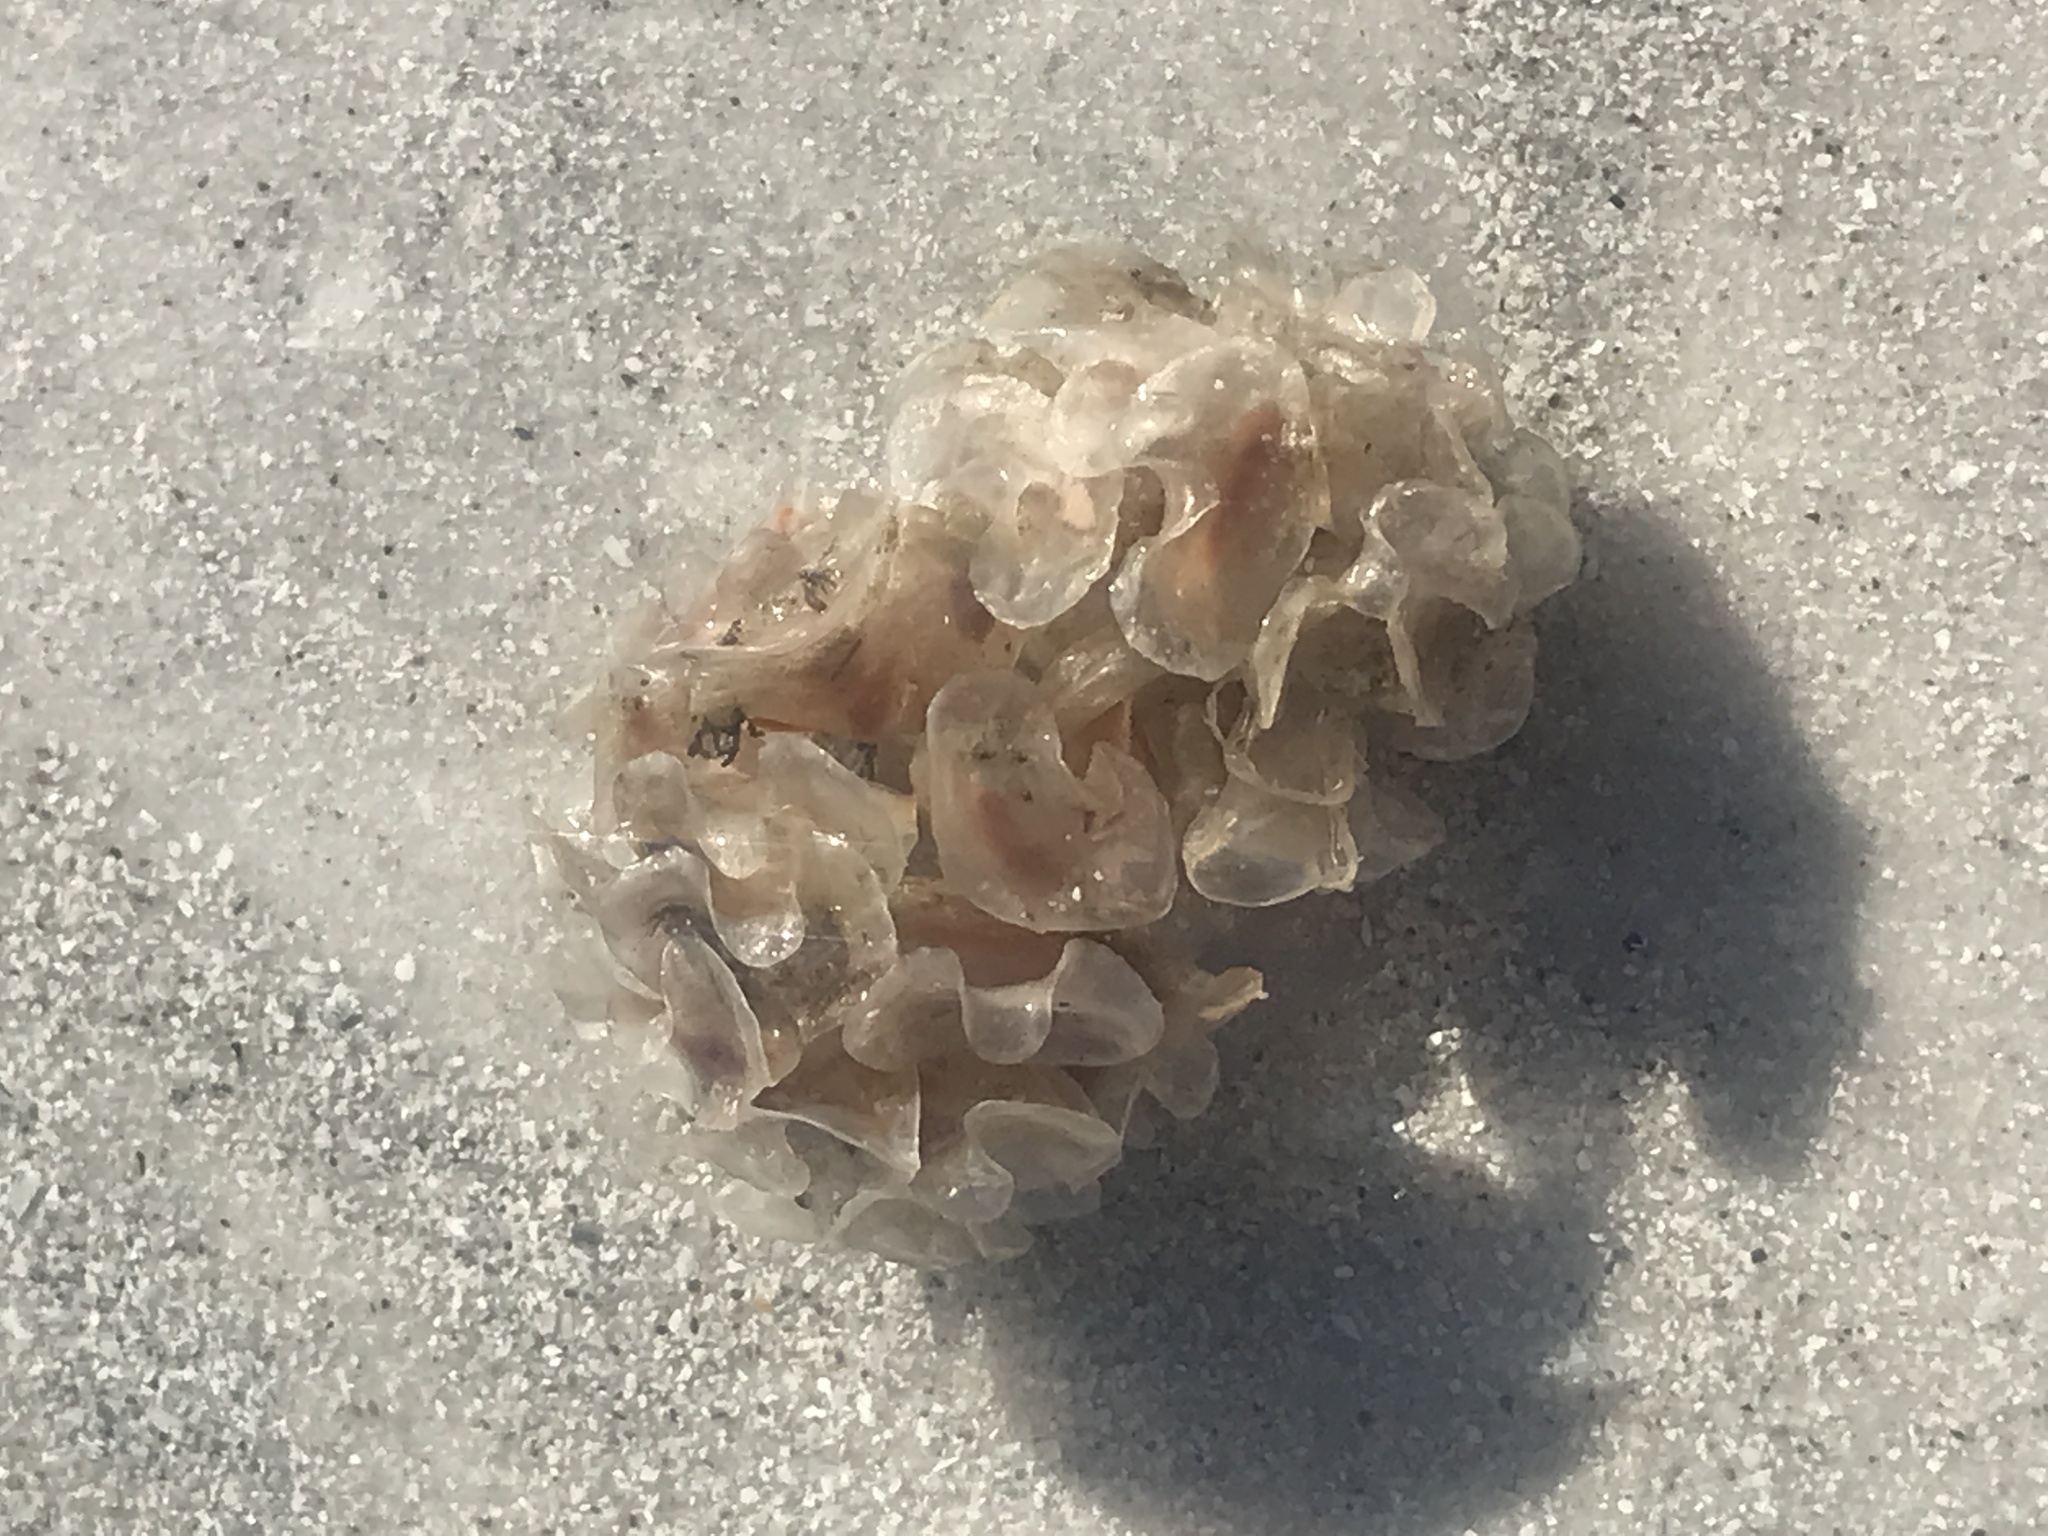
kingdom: Animalia
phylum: Mollusca
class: Gastropoda
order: Neogastropoda
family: Fasciolariidae
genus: Cinctura
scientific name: Cinctura hunteria
